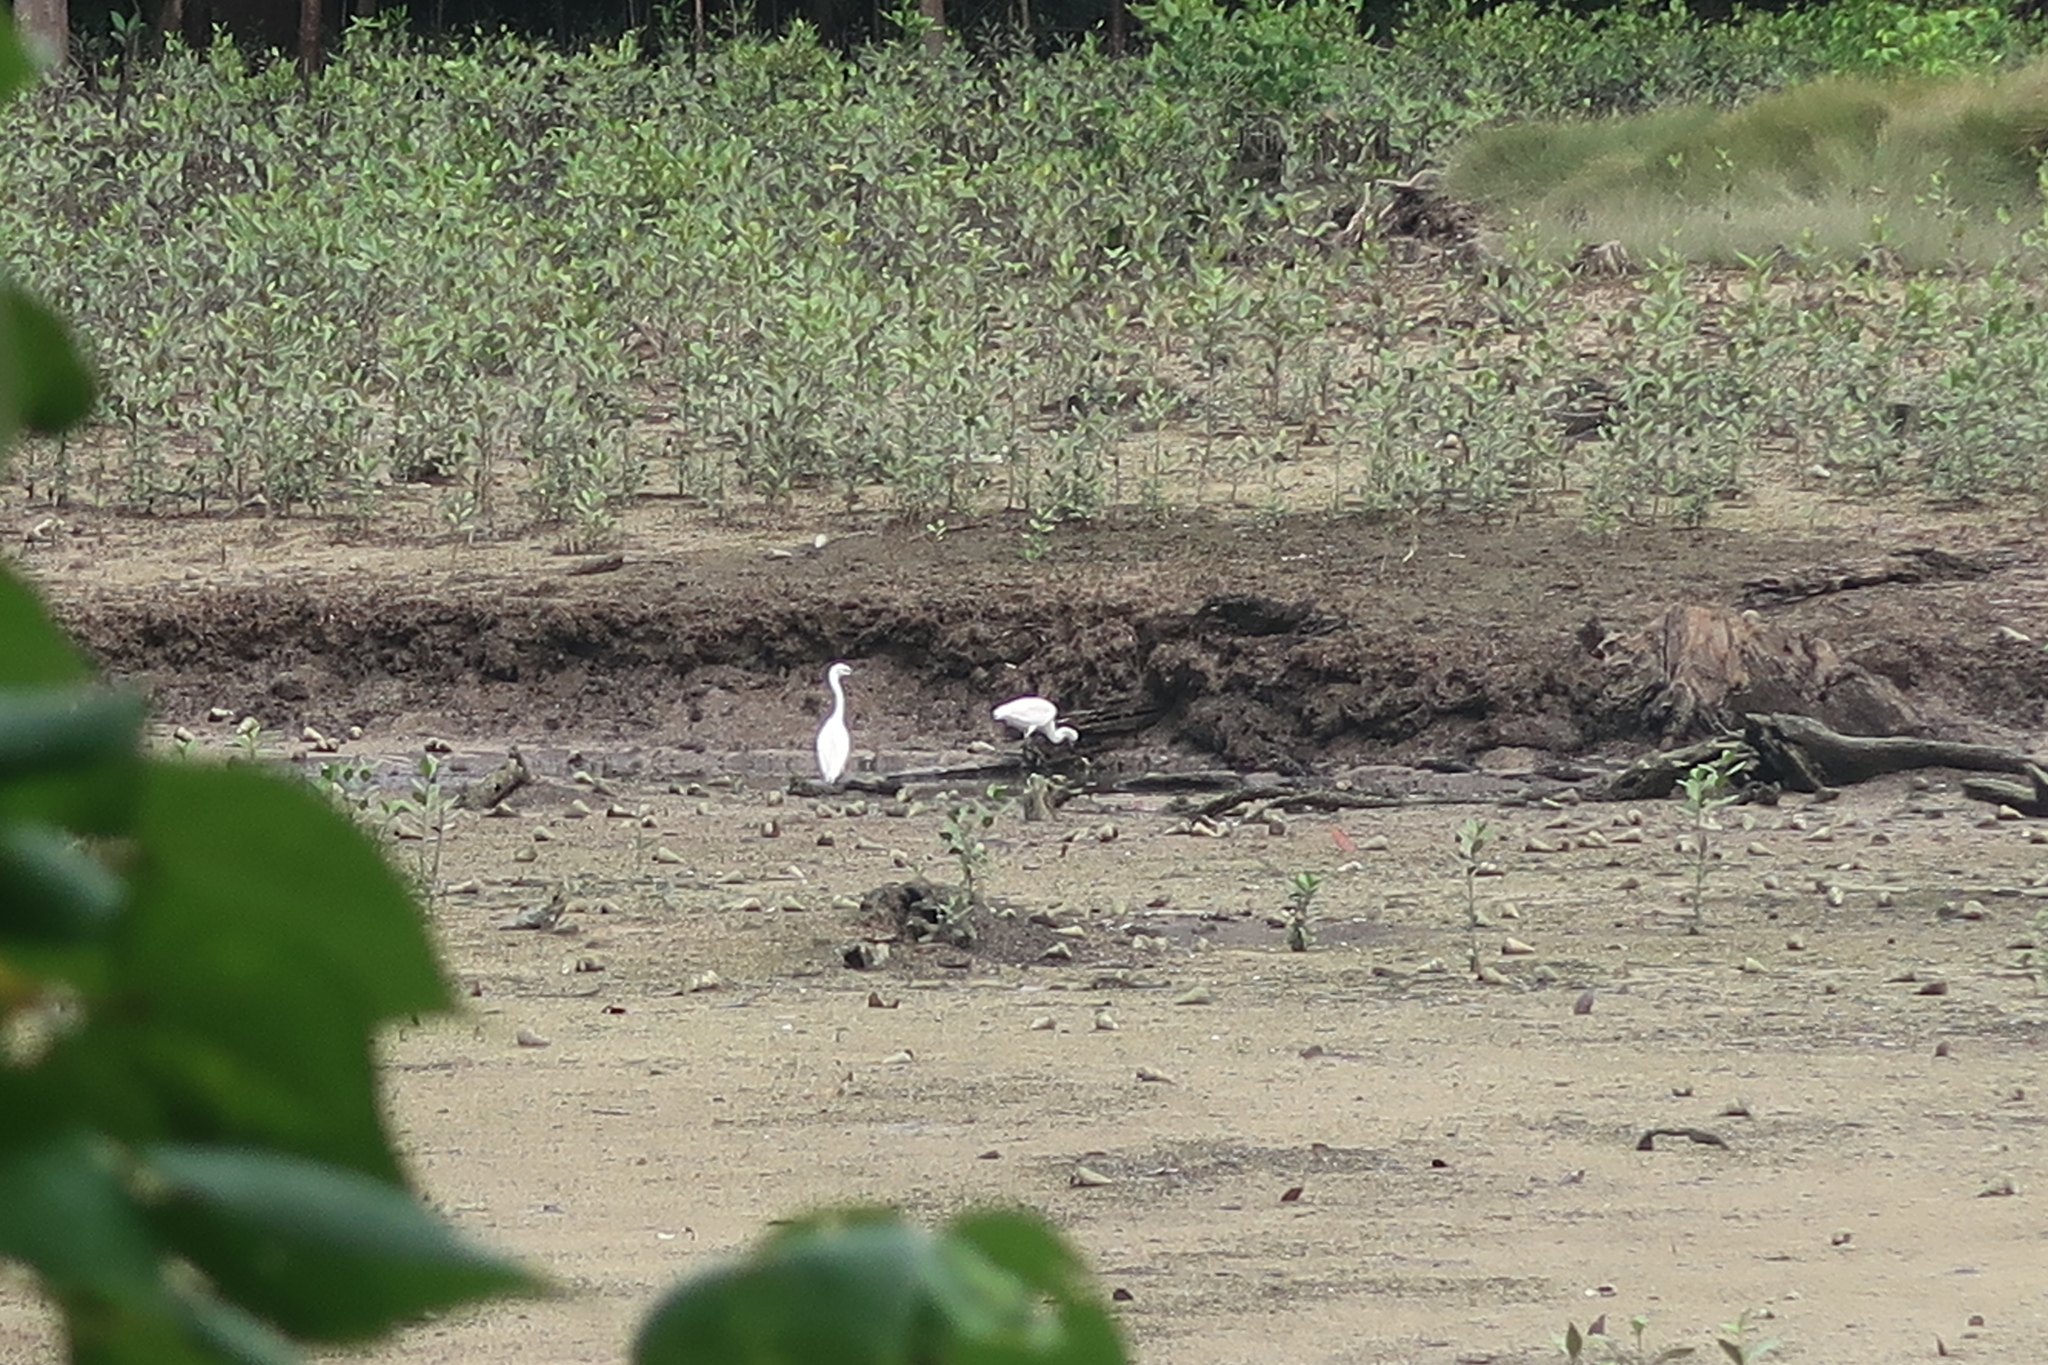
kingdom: Animalia
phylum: Chordata
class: Aves
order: Pelecaniformes
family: Ardeidae
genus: Egretta
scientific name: Egretta garzetta
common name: Little egret
